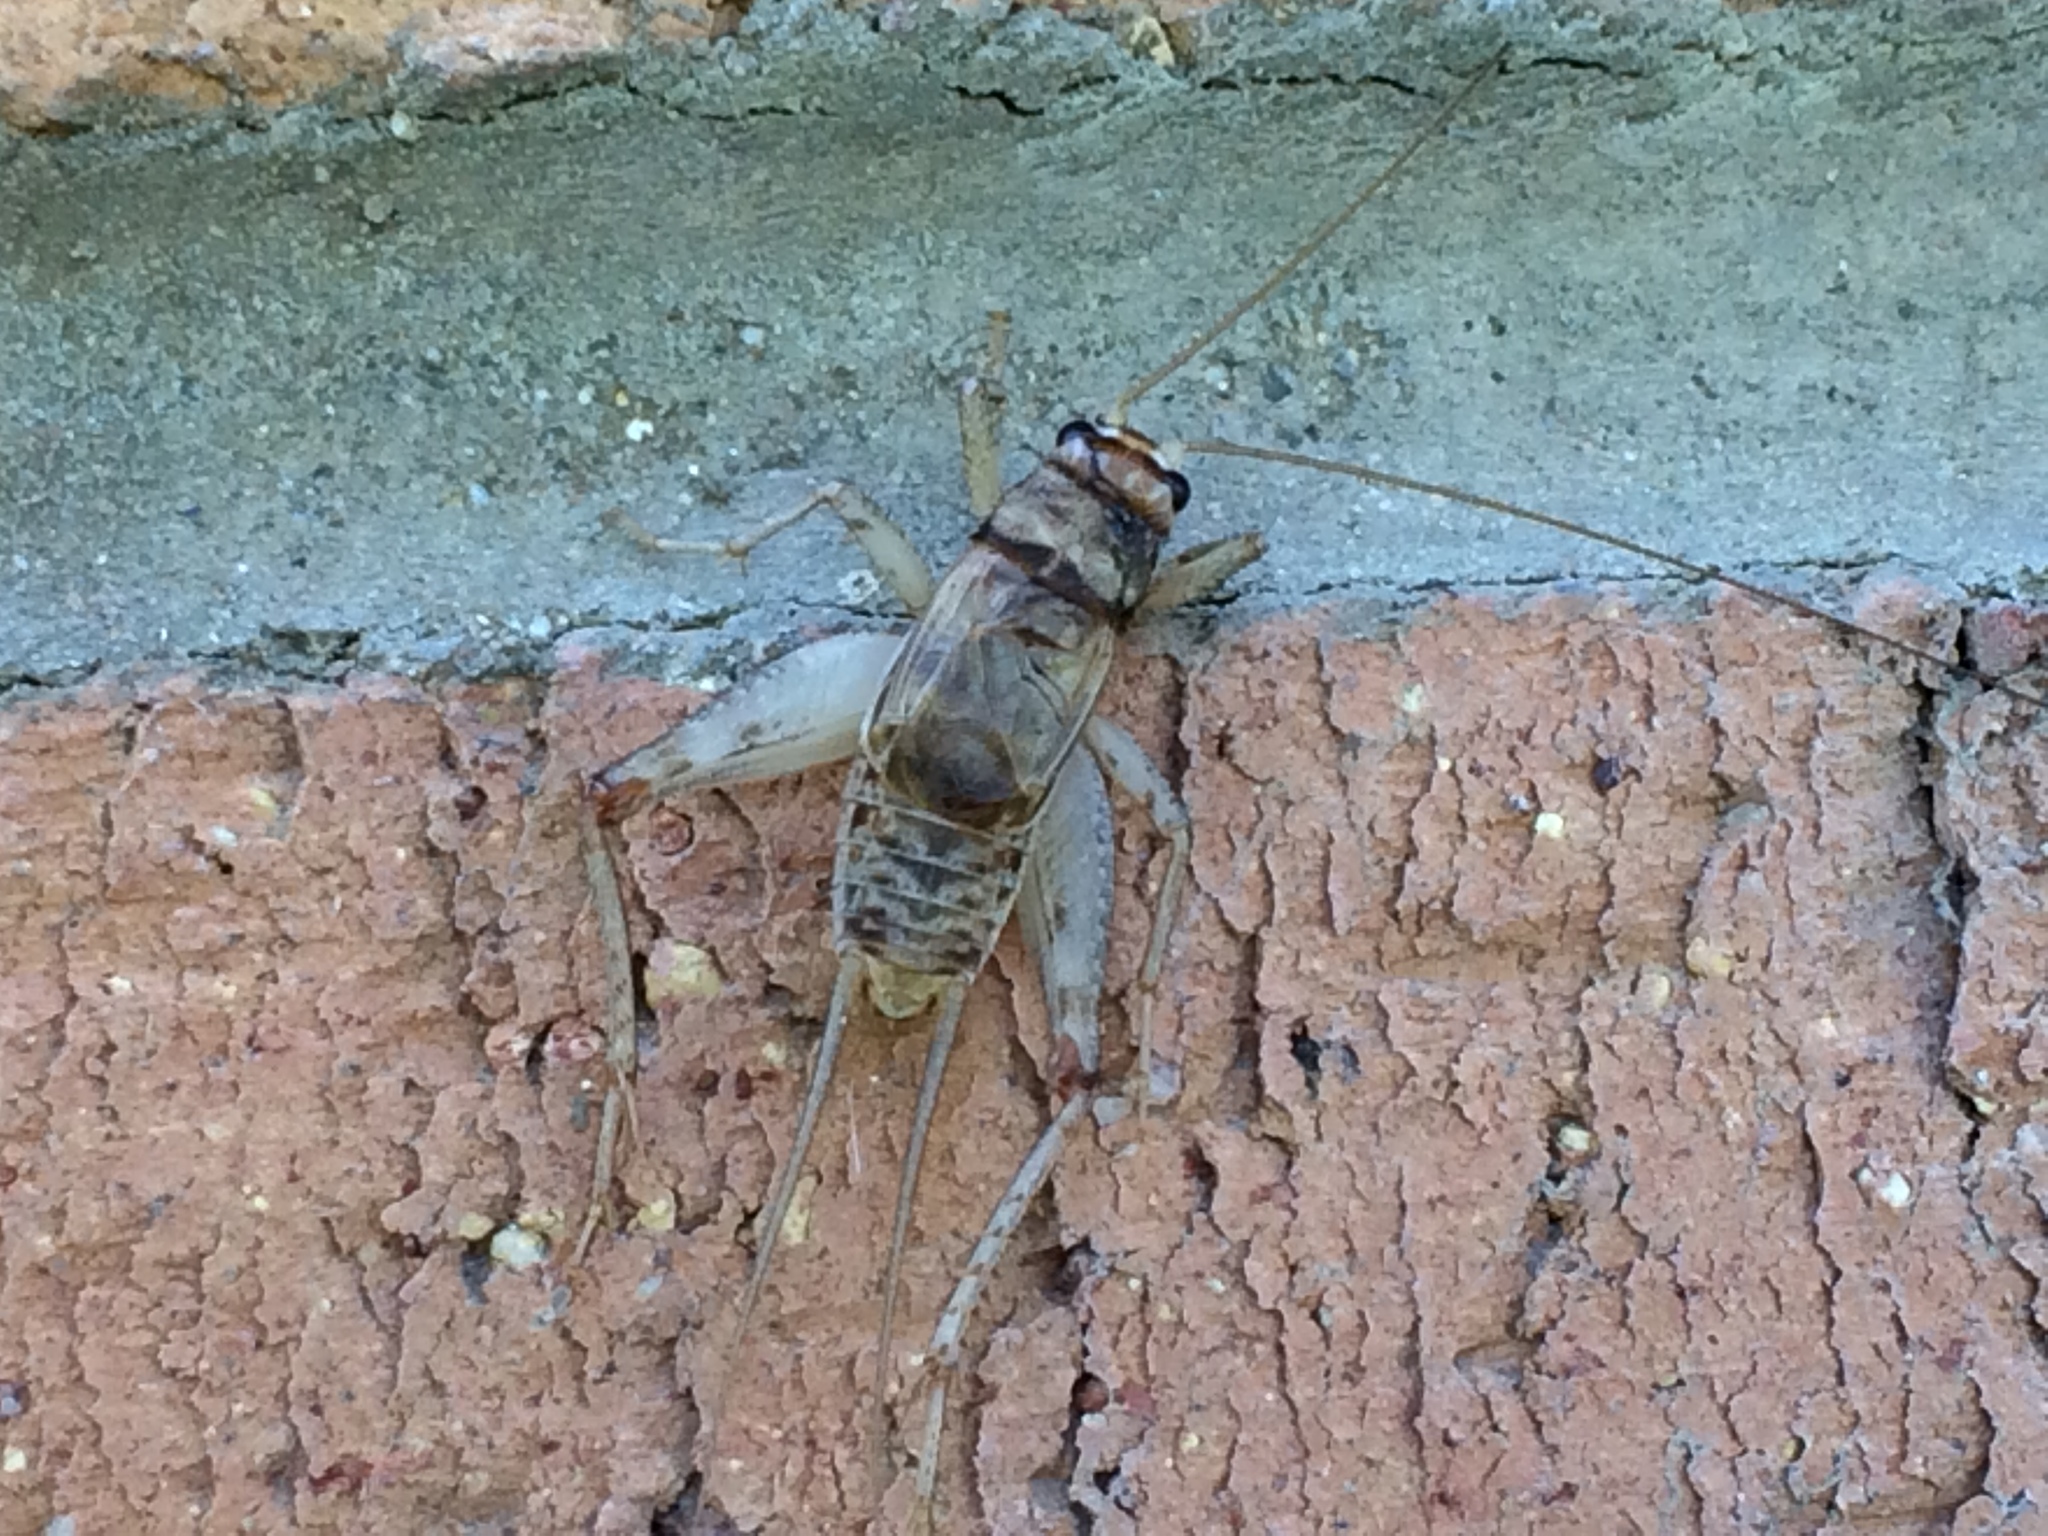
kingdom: Animalia
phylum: Arthropoda
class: Insecta
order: Orthoptera
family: Gryllidae
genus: Gryllodes
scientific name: Gryllodes sigillatus
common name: Tropical house cricket
